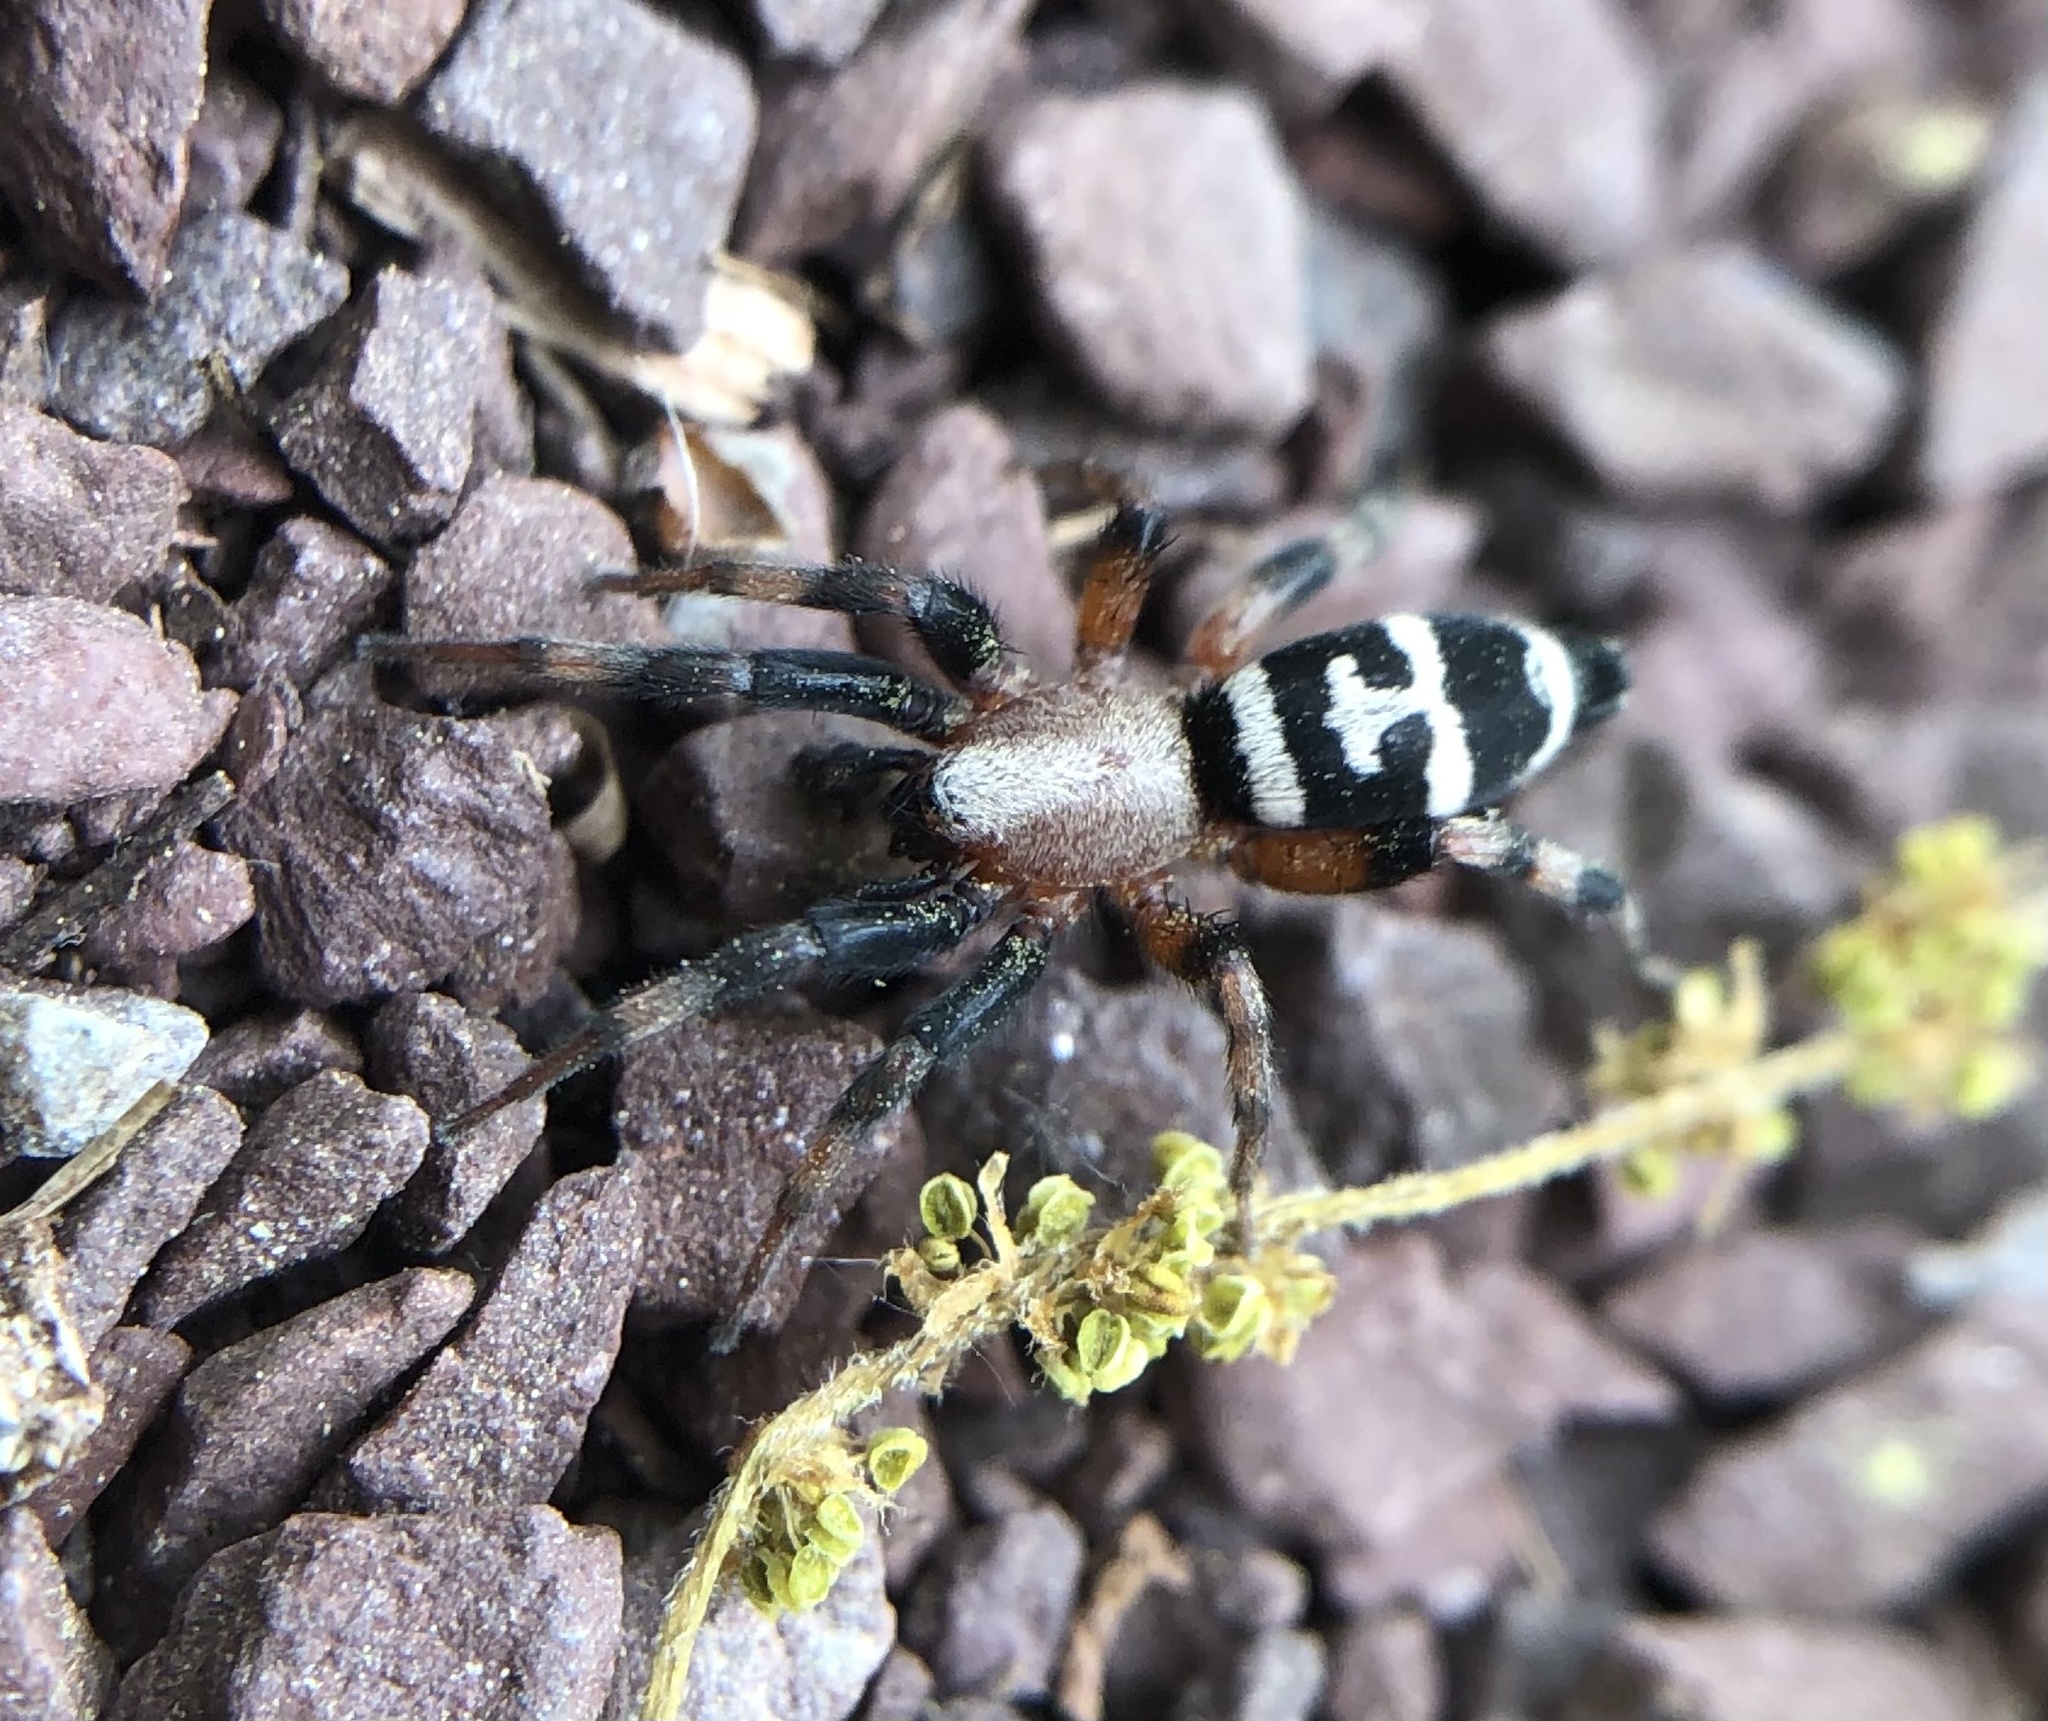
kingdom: Animalia
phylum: Arthropoda
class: Arachnida
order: Araneae
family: Gnaphosidae
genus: Sergiolus
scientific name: Sergiolus capulatus
